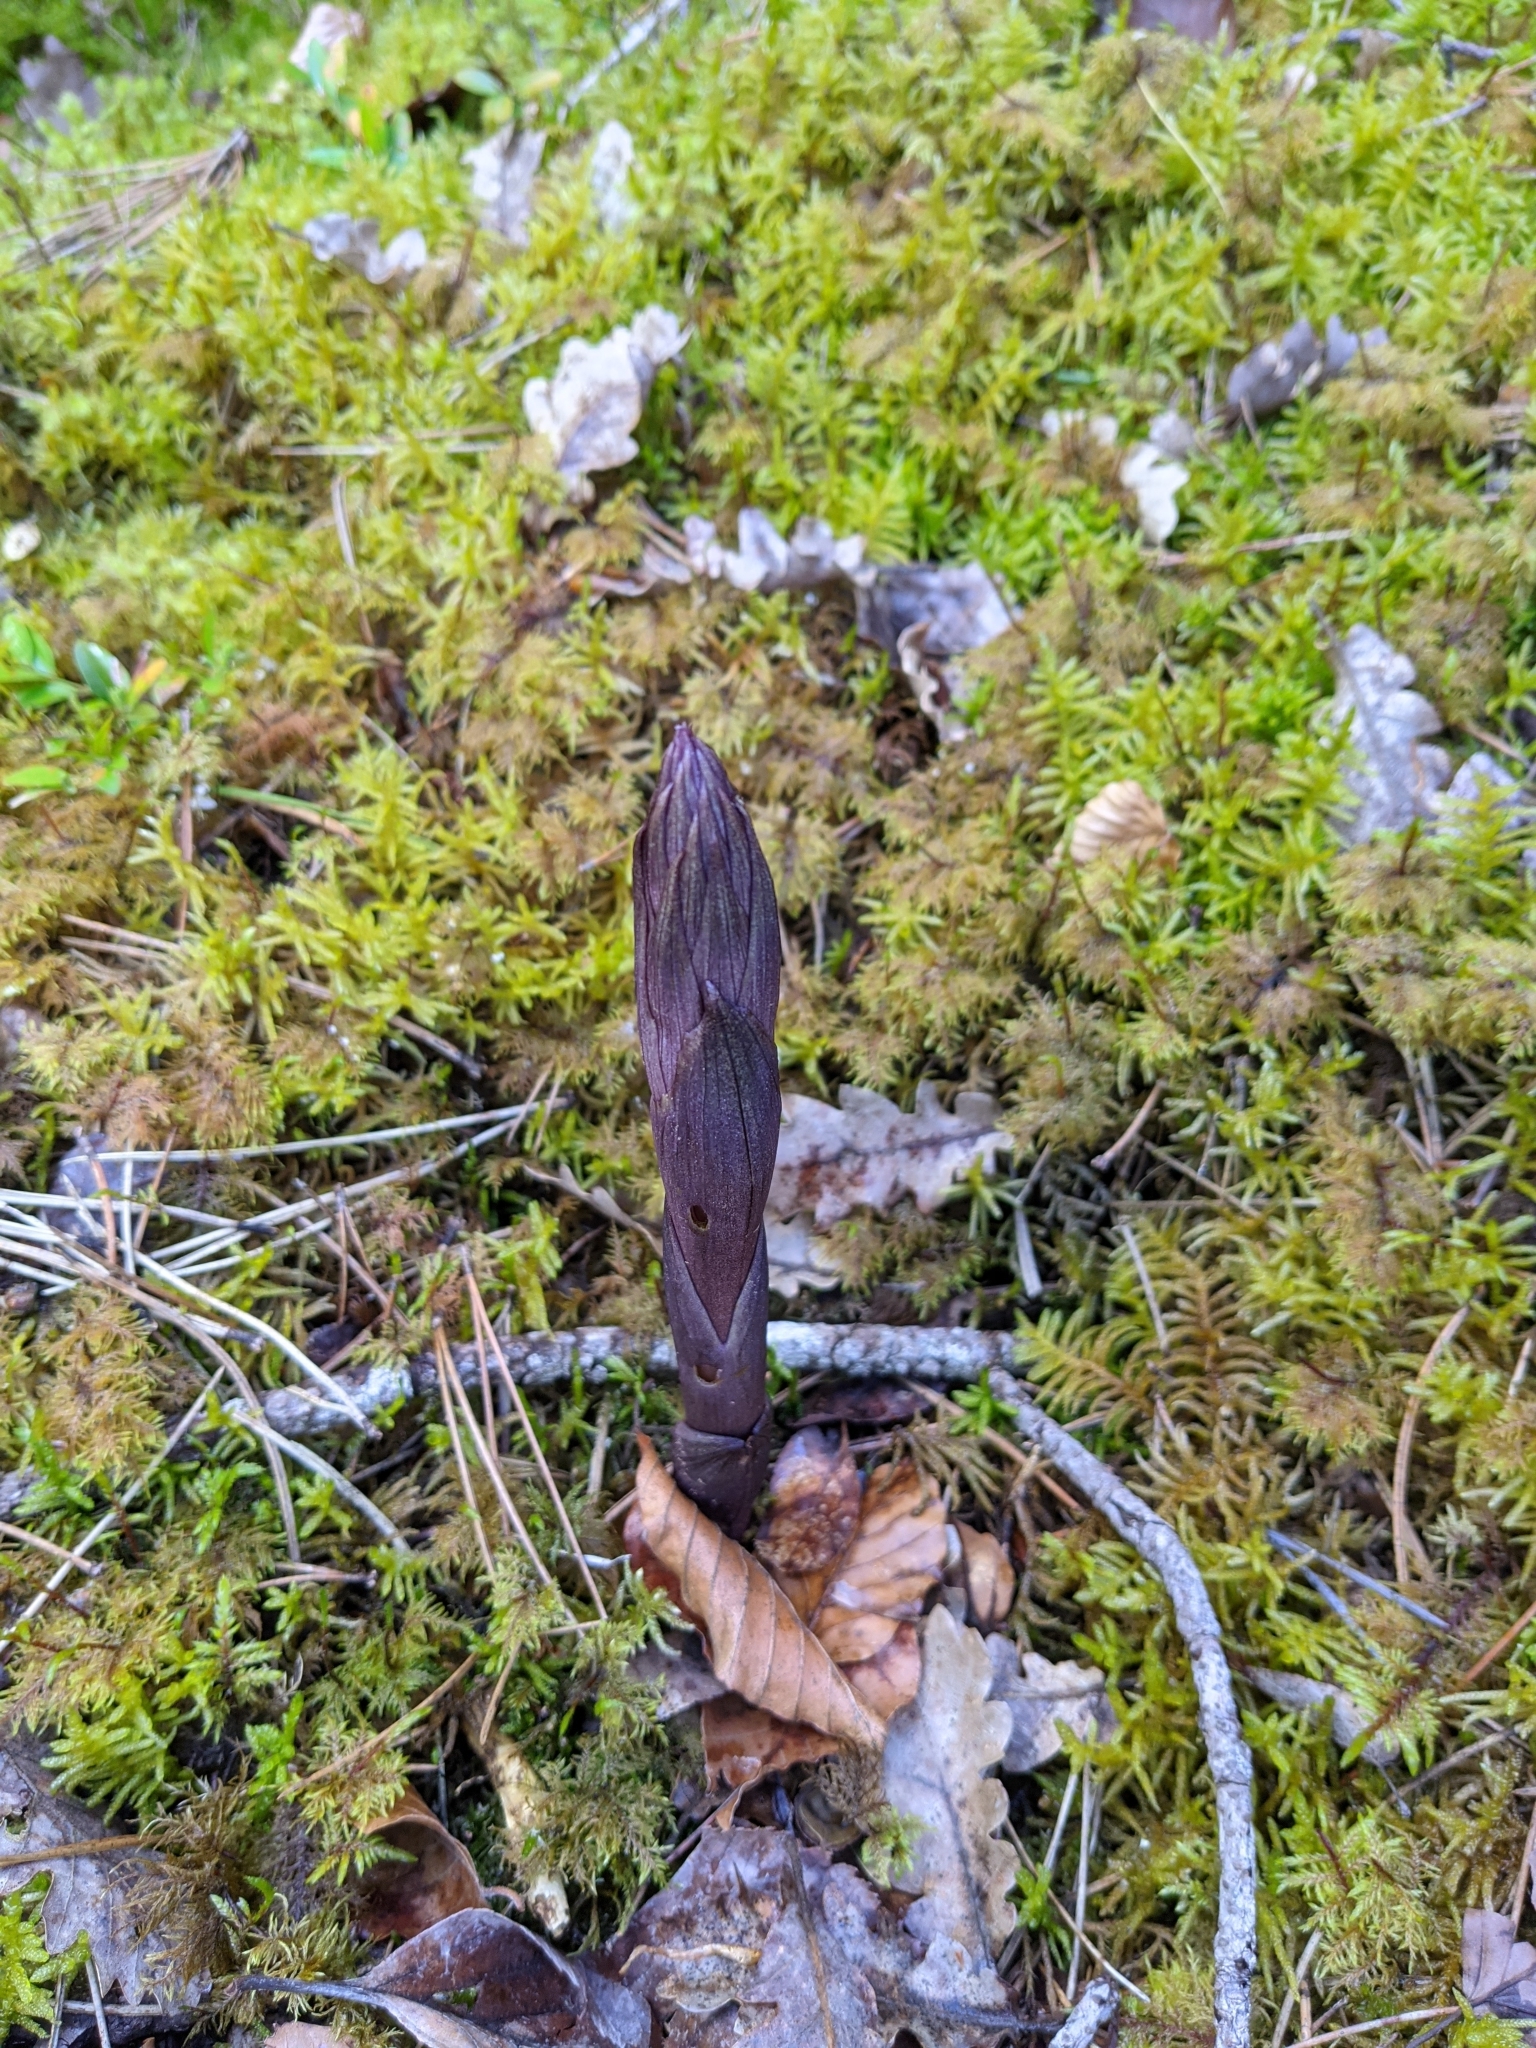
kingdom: Plantae
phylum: Tracheophyta
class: Liliopsida
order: Asparagales
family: Orchidaceae
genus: Limodorum
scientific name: Limodorum abortivum
